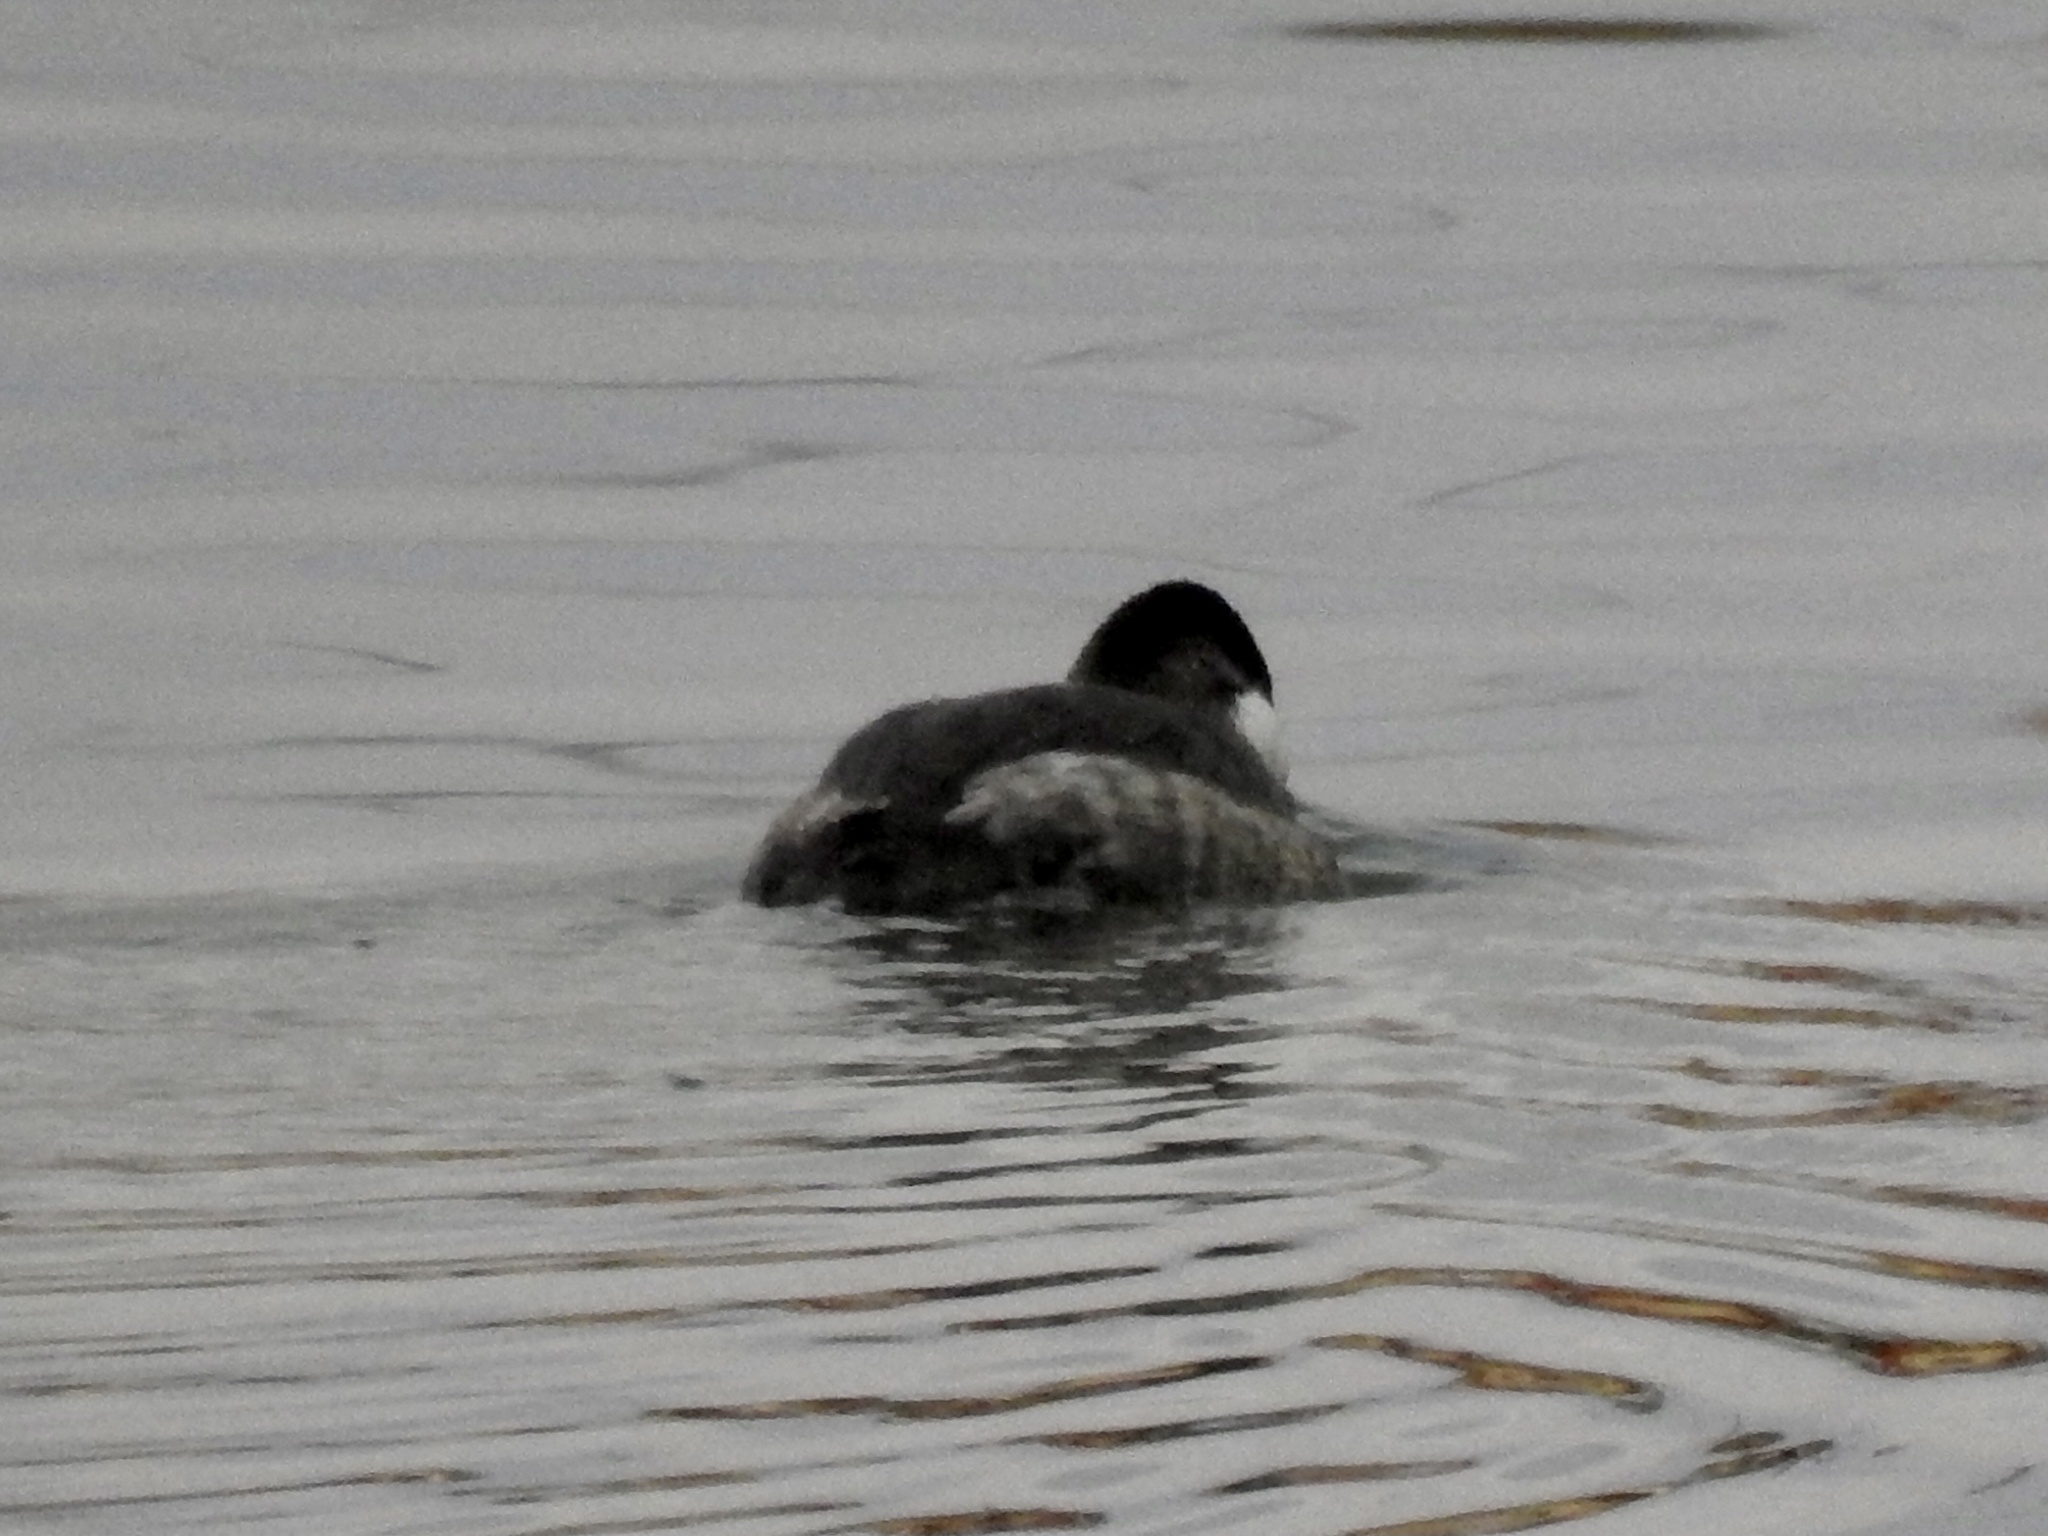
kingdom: Animalia
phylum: Chordata
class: Aves
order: Anseriformes
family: Anatidae
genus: Oxyura
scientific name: Oxyura jamaicensis
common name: Ruddy duck
